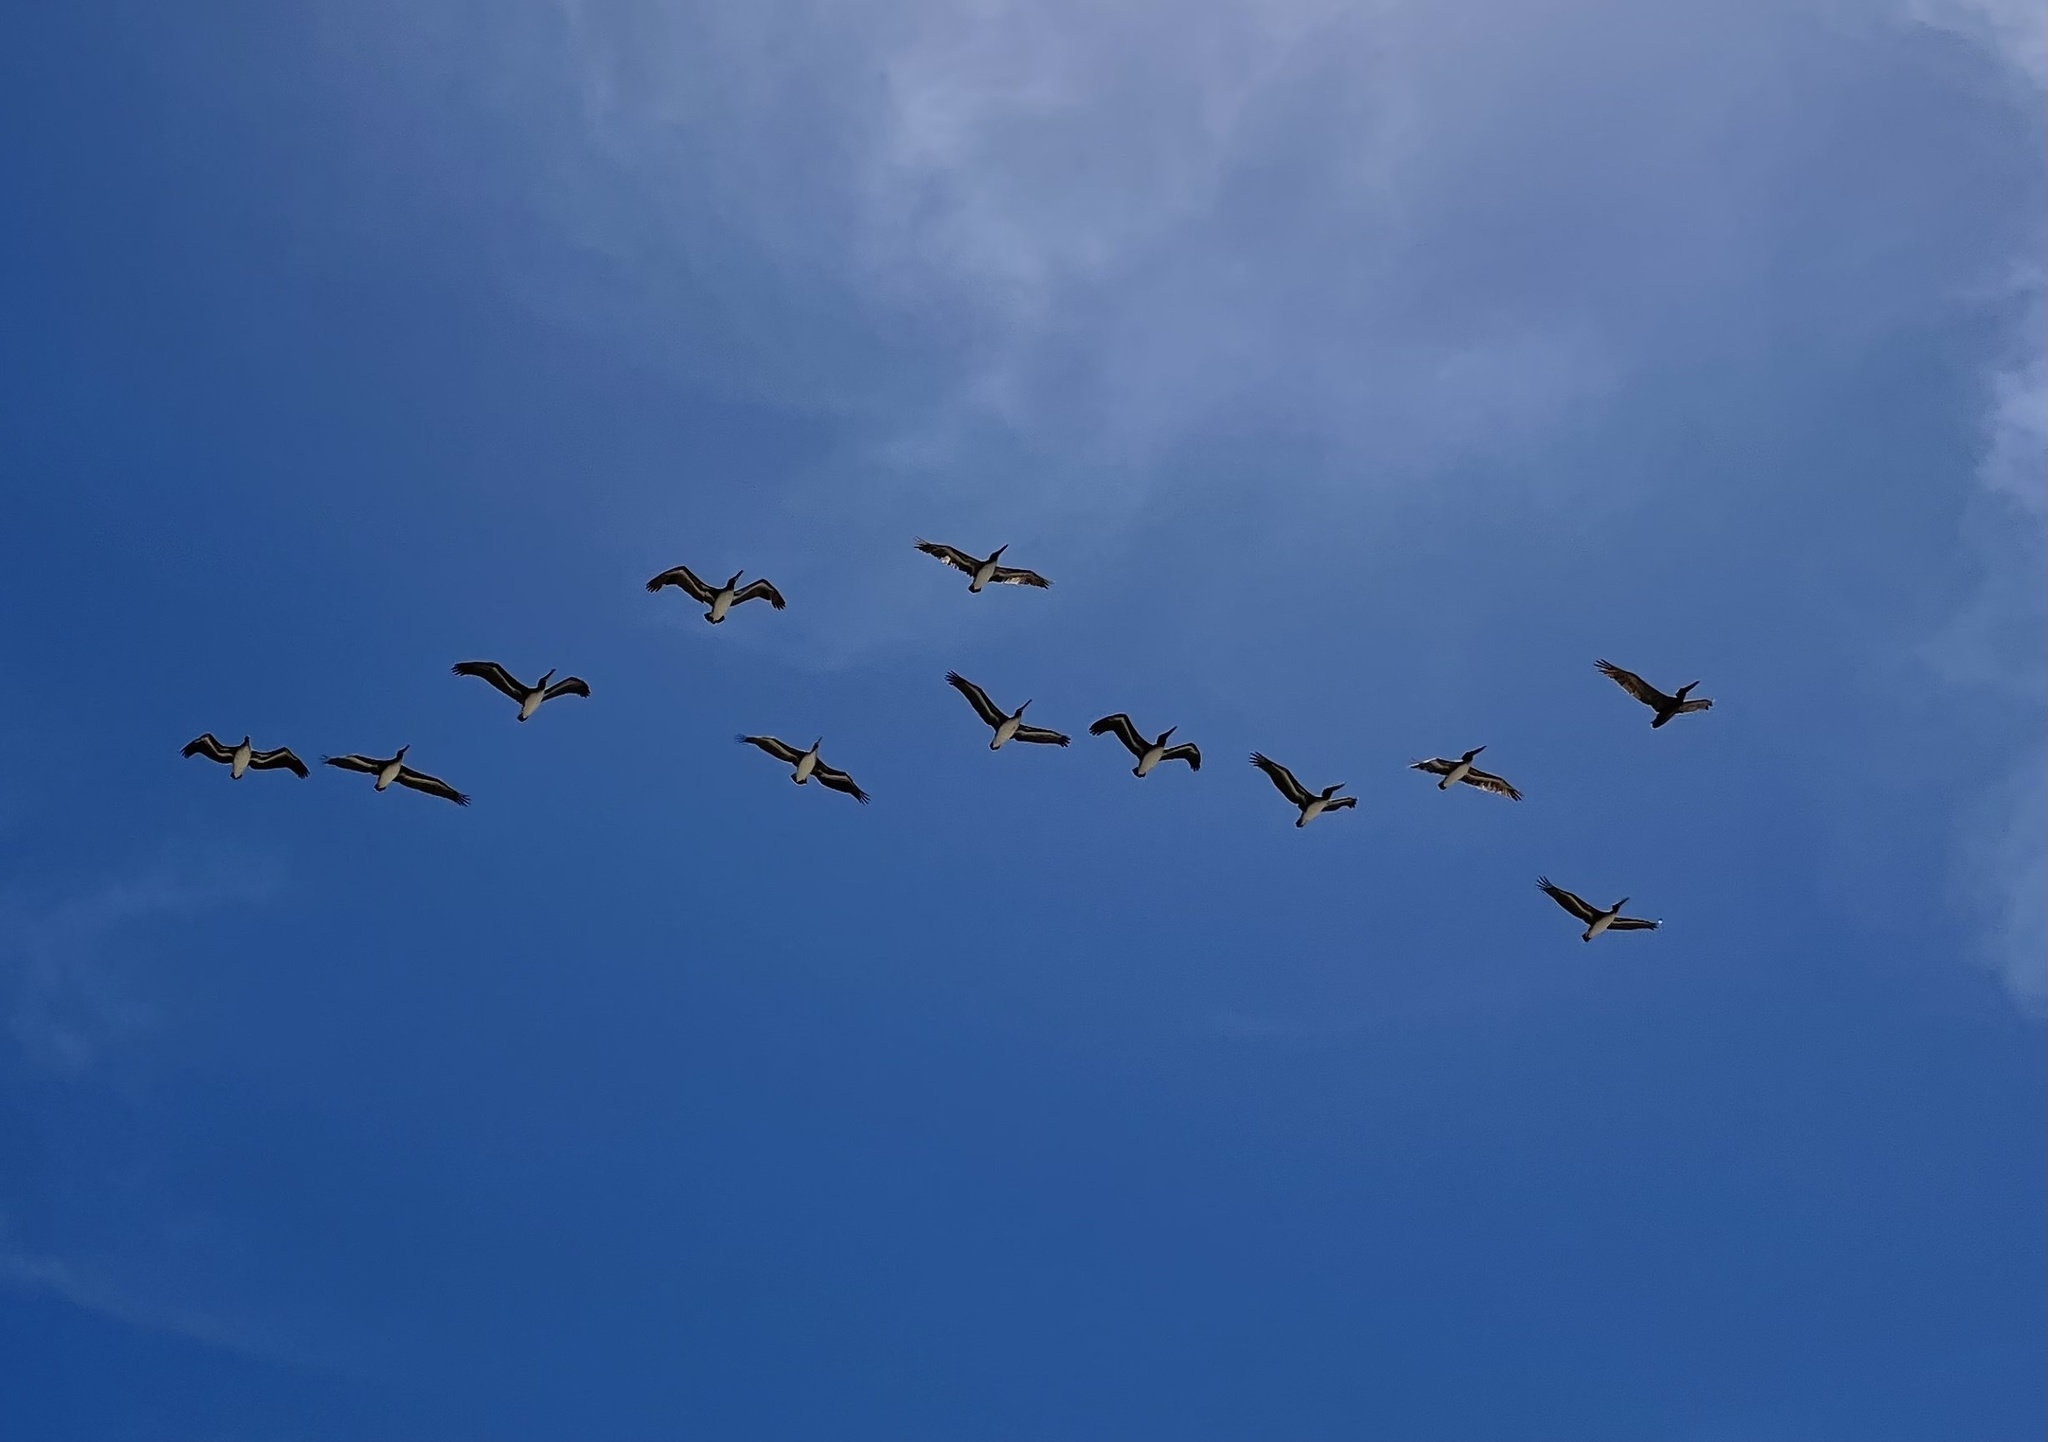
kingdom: Animalia
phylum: Chordata
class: Aves
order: Pelecaniformes
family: Pelecanidae
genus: Pelecanus
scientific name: Pelecanus occidentalis
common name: Brown pelican
